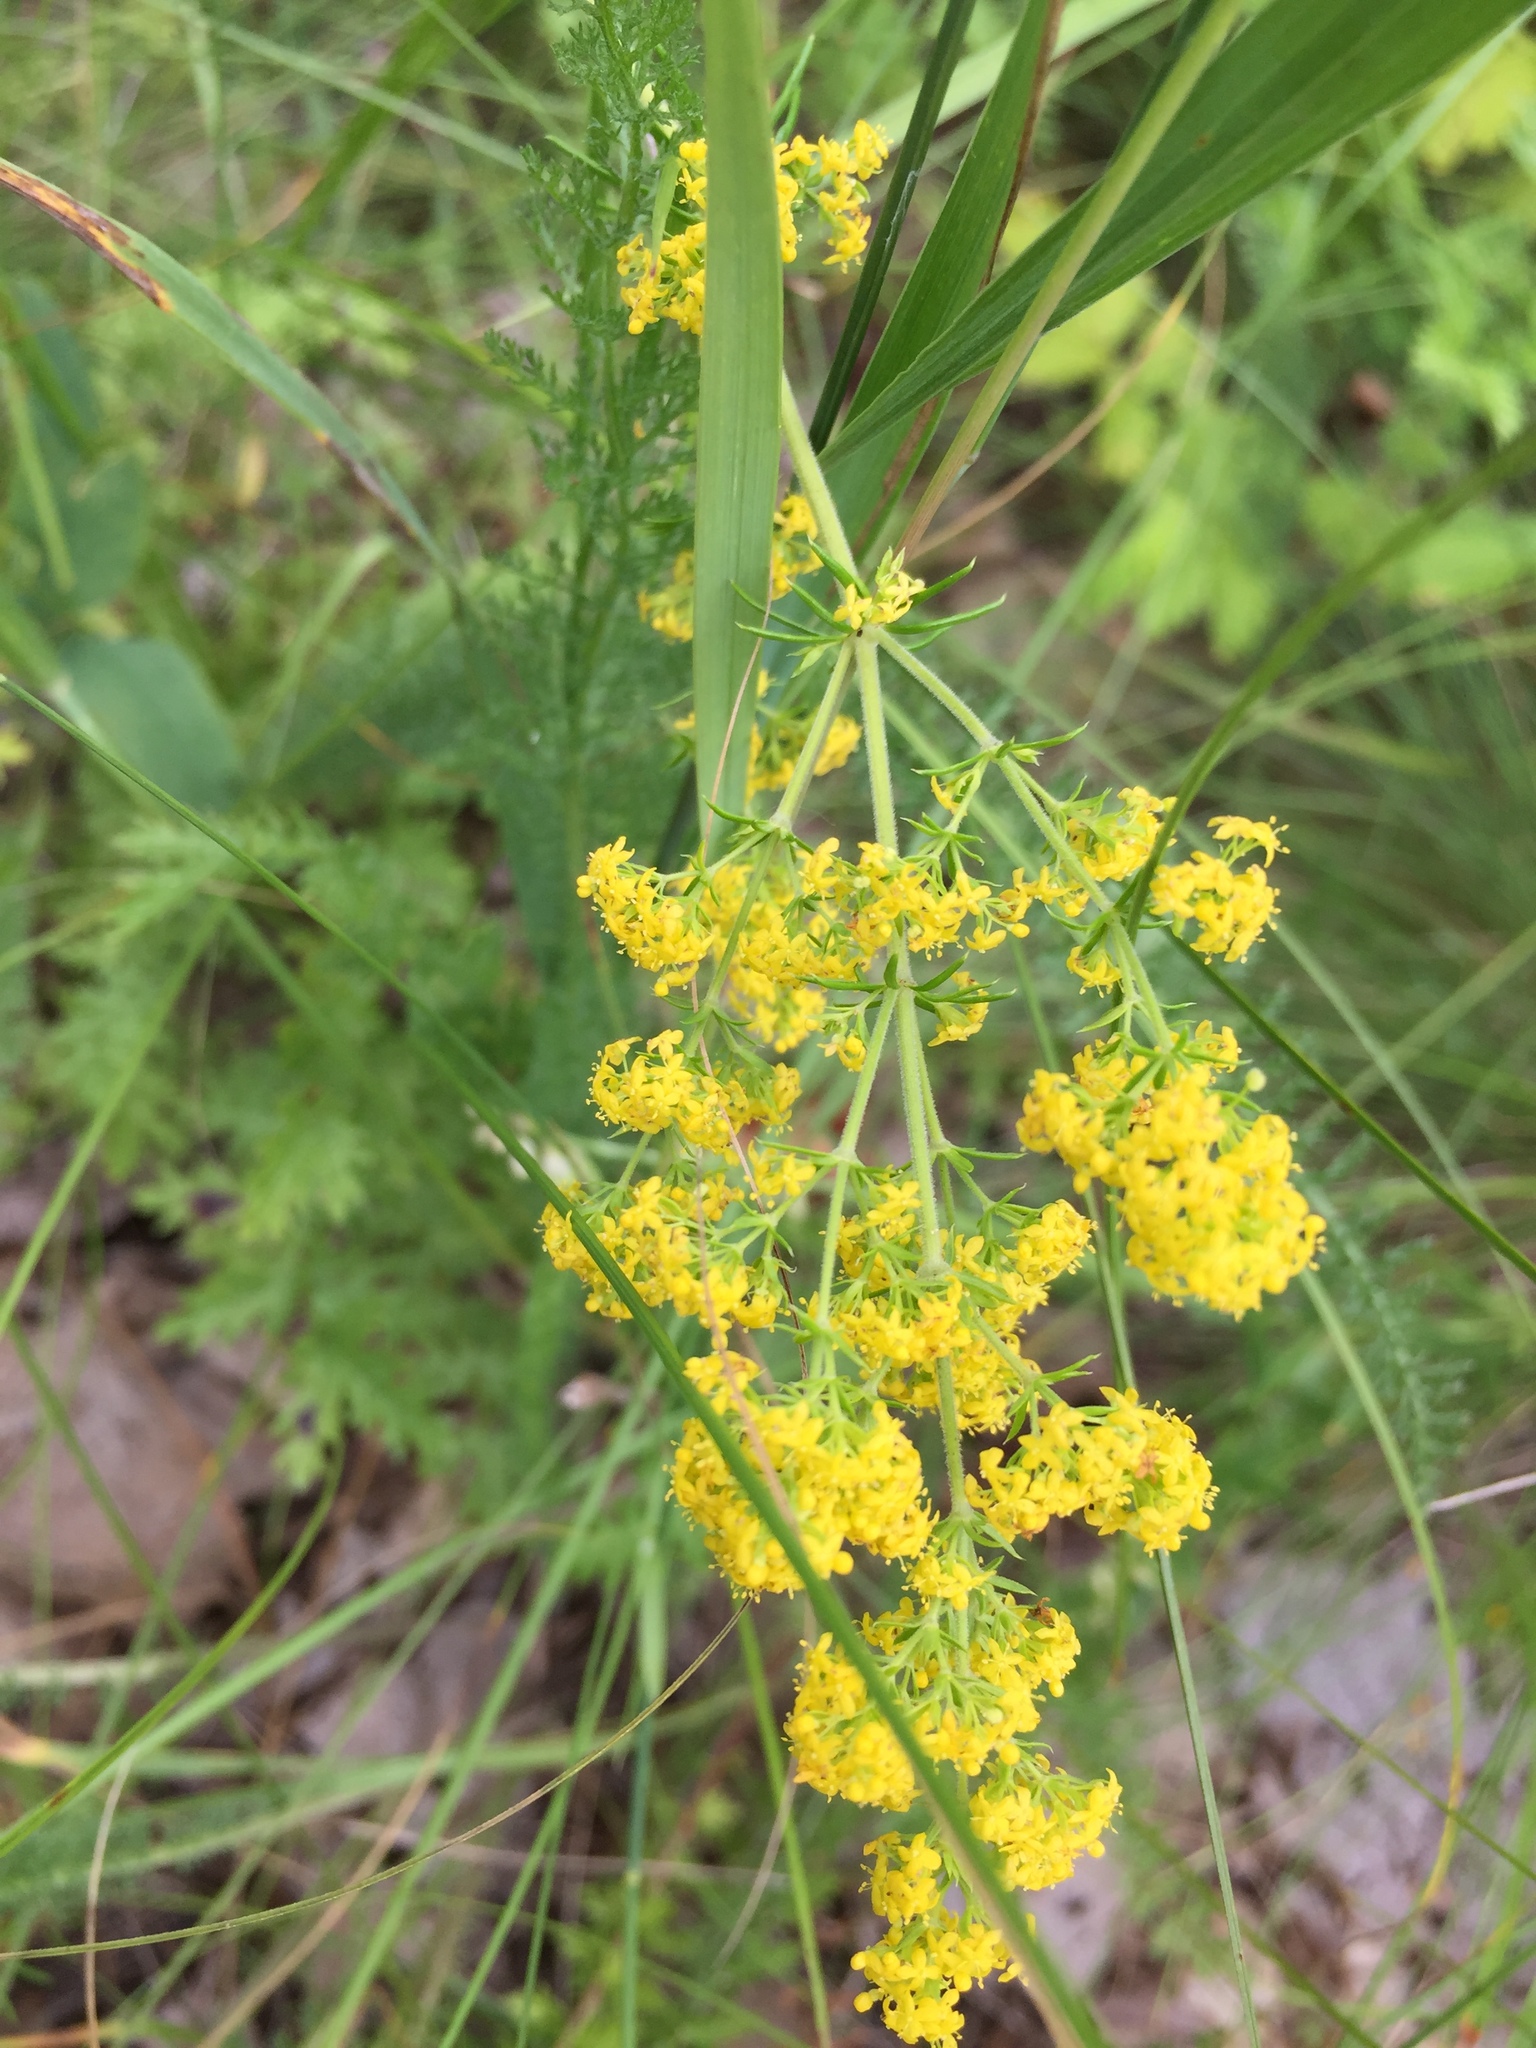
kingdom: Plantae
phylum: Tracheophyta
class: Magnoliopsida
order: Gentianales
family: Rubiaceae
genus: Galium
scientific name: Galium verum
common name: Lady's bedstraw
